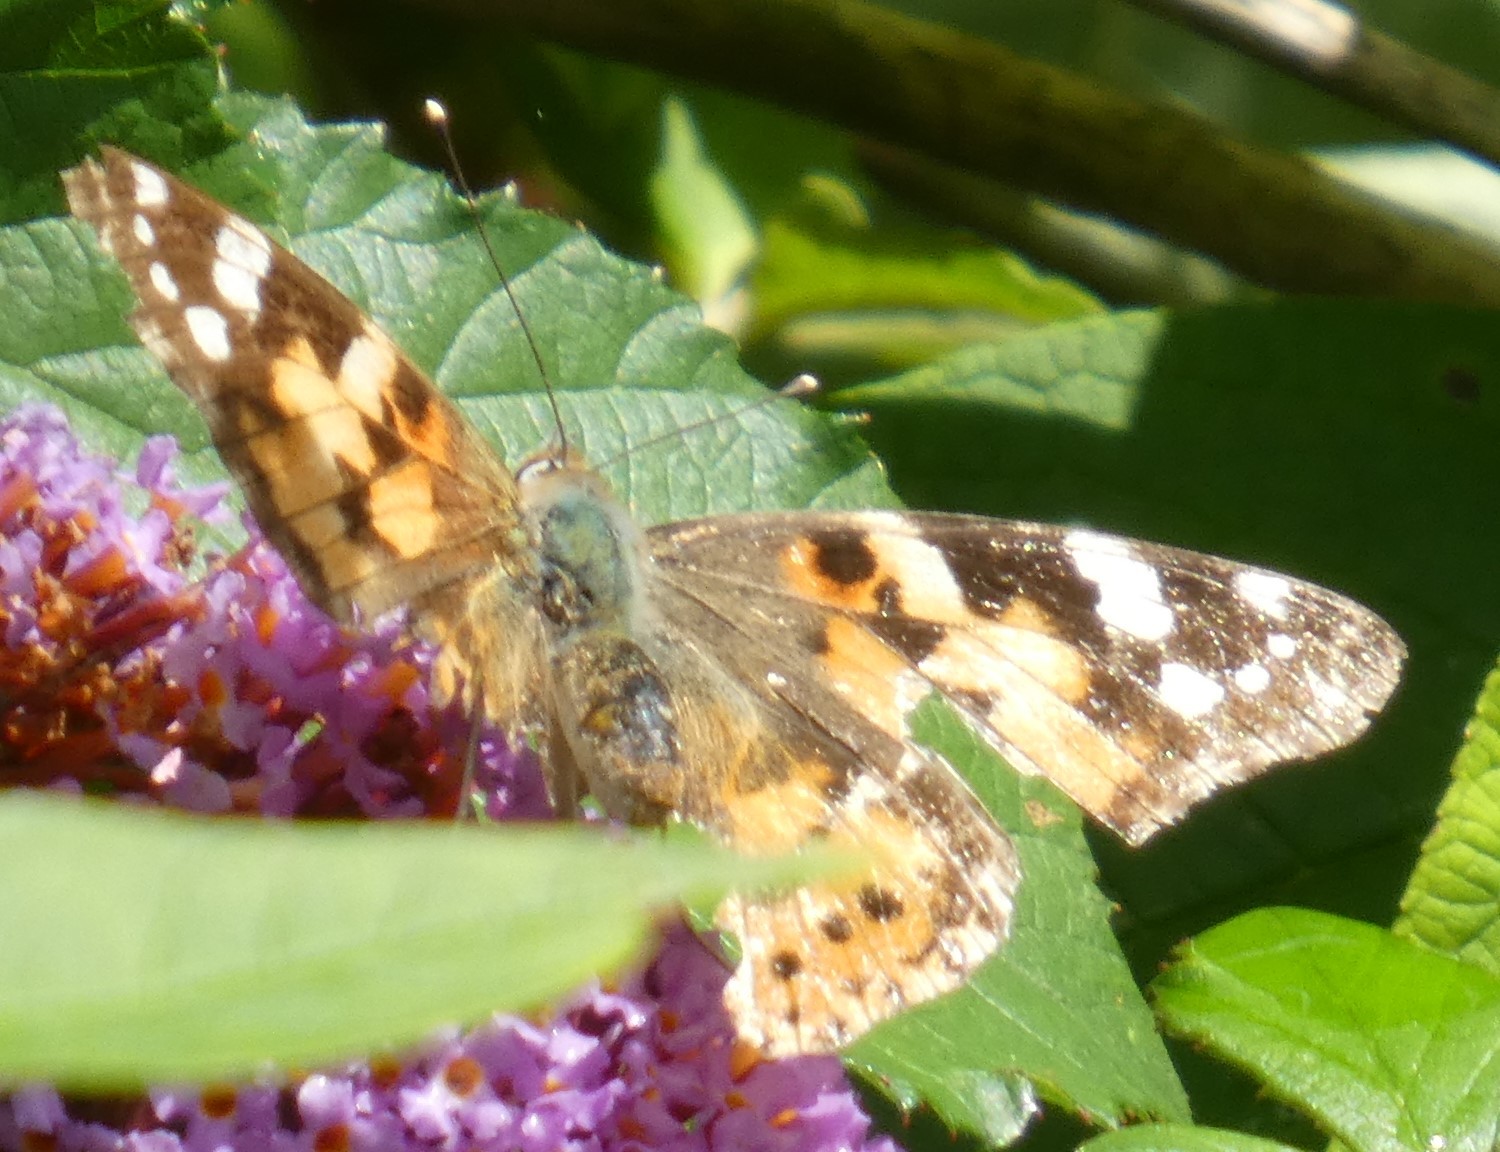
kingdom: Animalia
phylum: Arthropoda
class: Insecta
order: Lepidoptera
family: Nymphalidae
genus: Vanessa
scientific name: Vanessa cardui
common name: Painted lady
